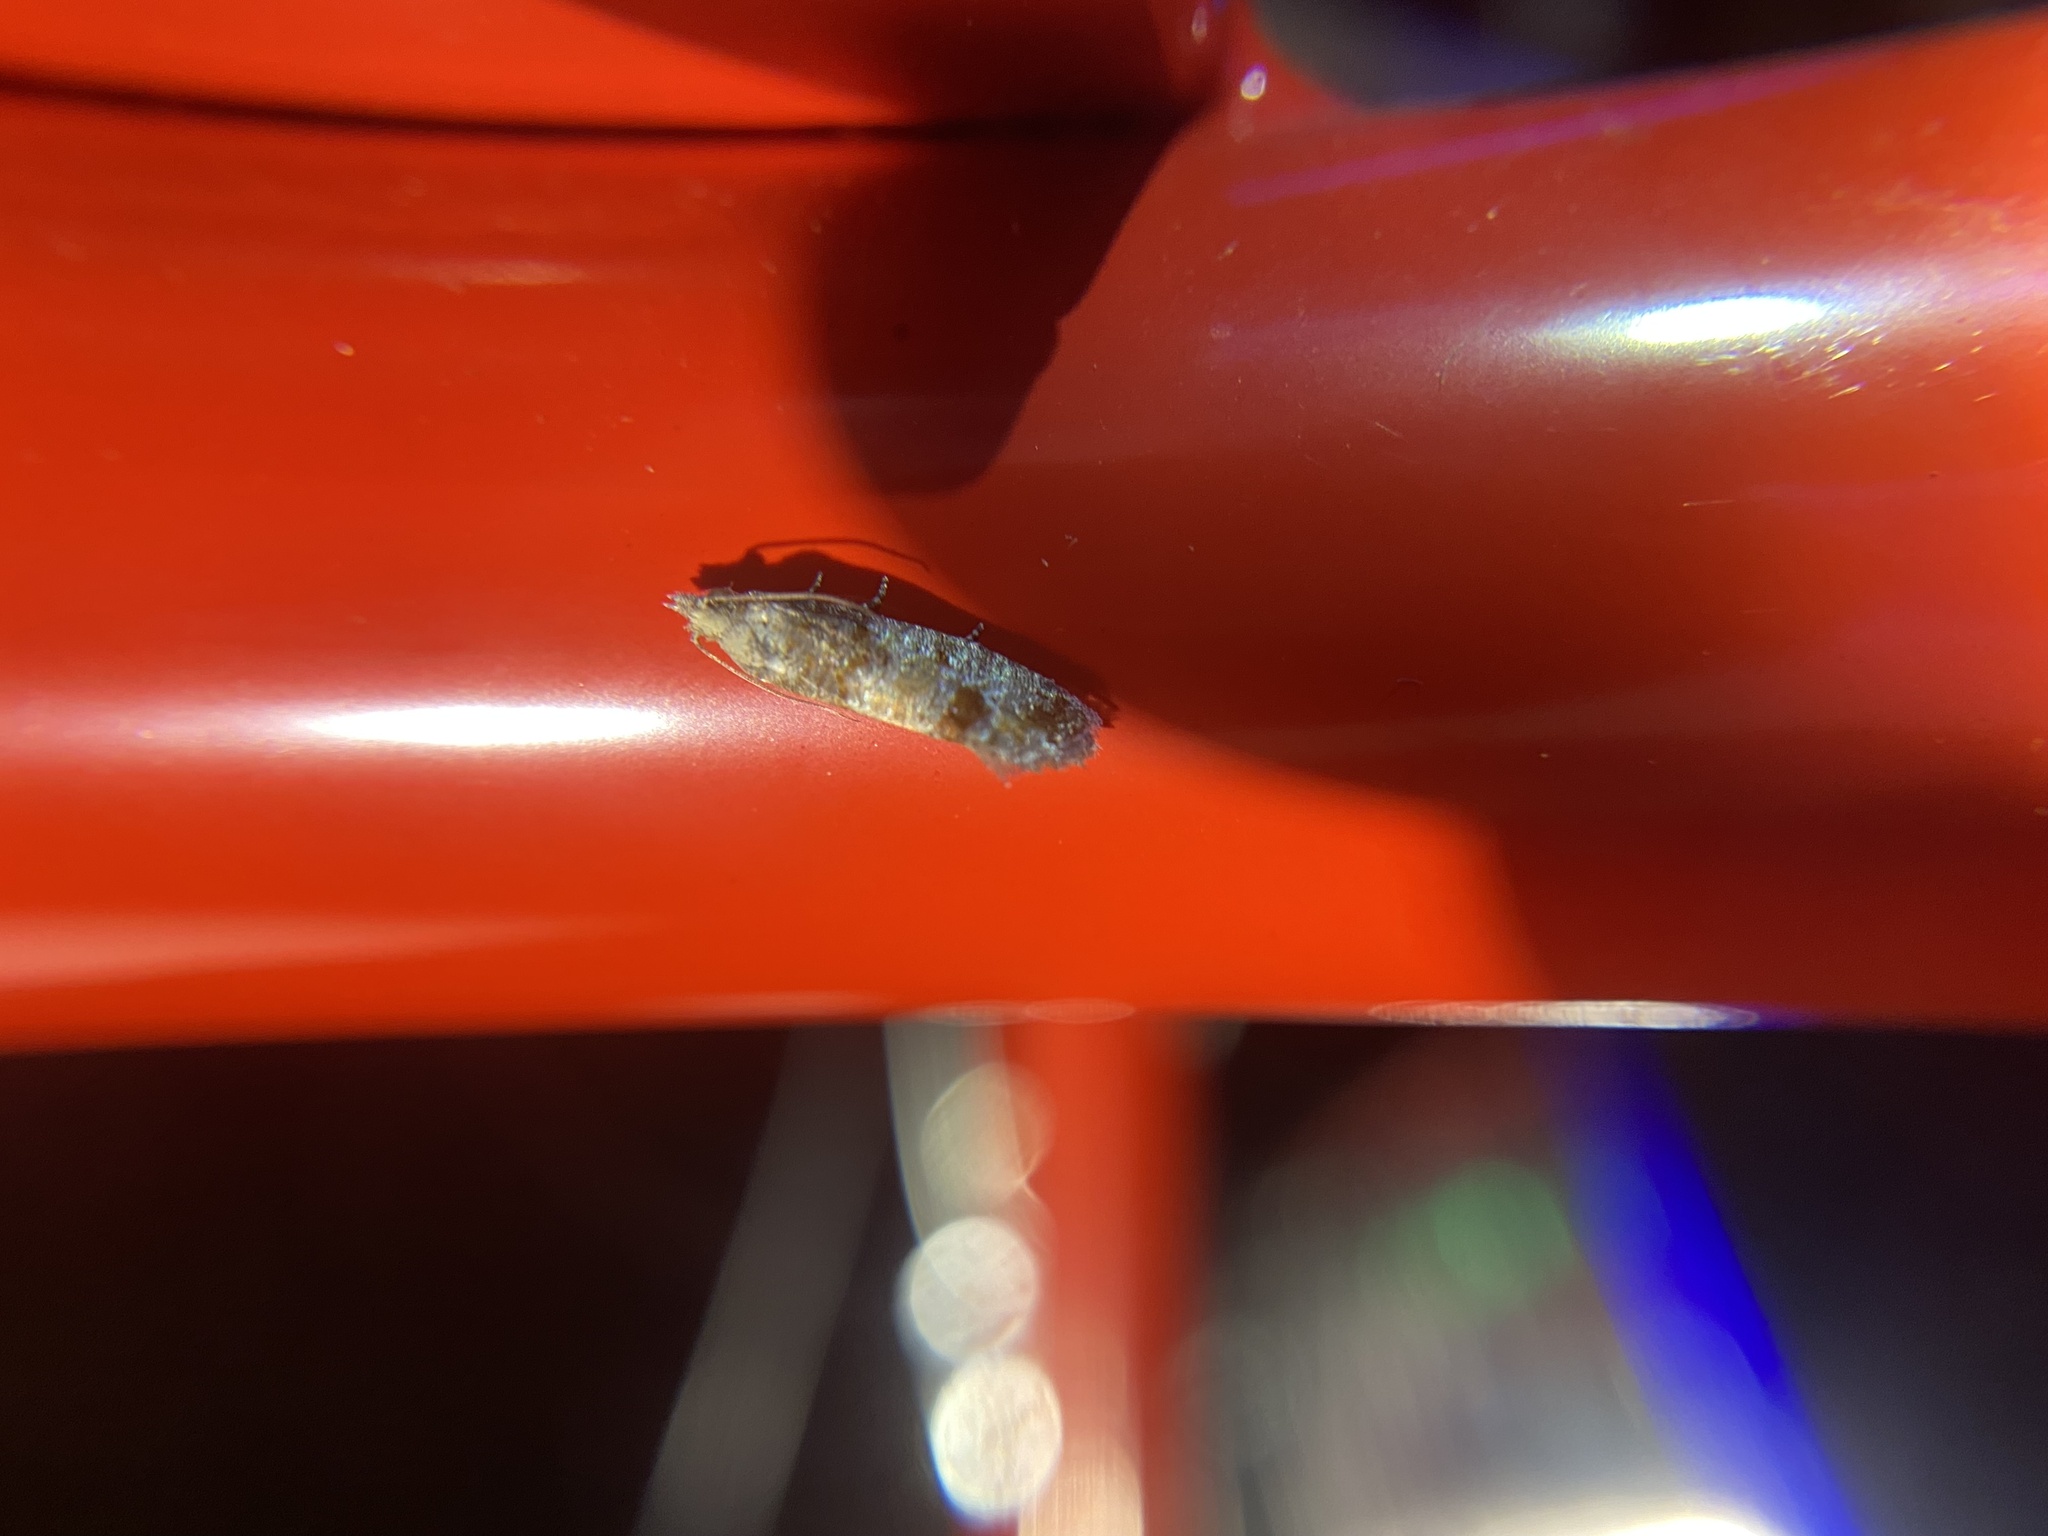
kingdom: Animalia
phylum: Arthropoda
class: Insecta
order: Lepidoptera
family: Tortricidae
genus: Rhyacionia
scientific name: Rhyacionia rigidana
